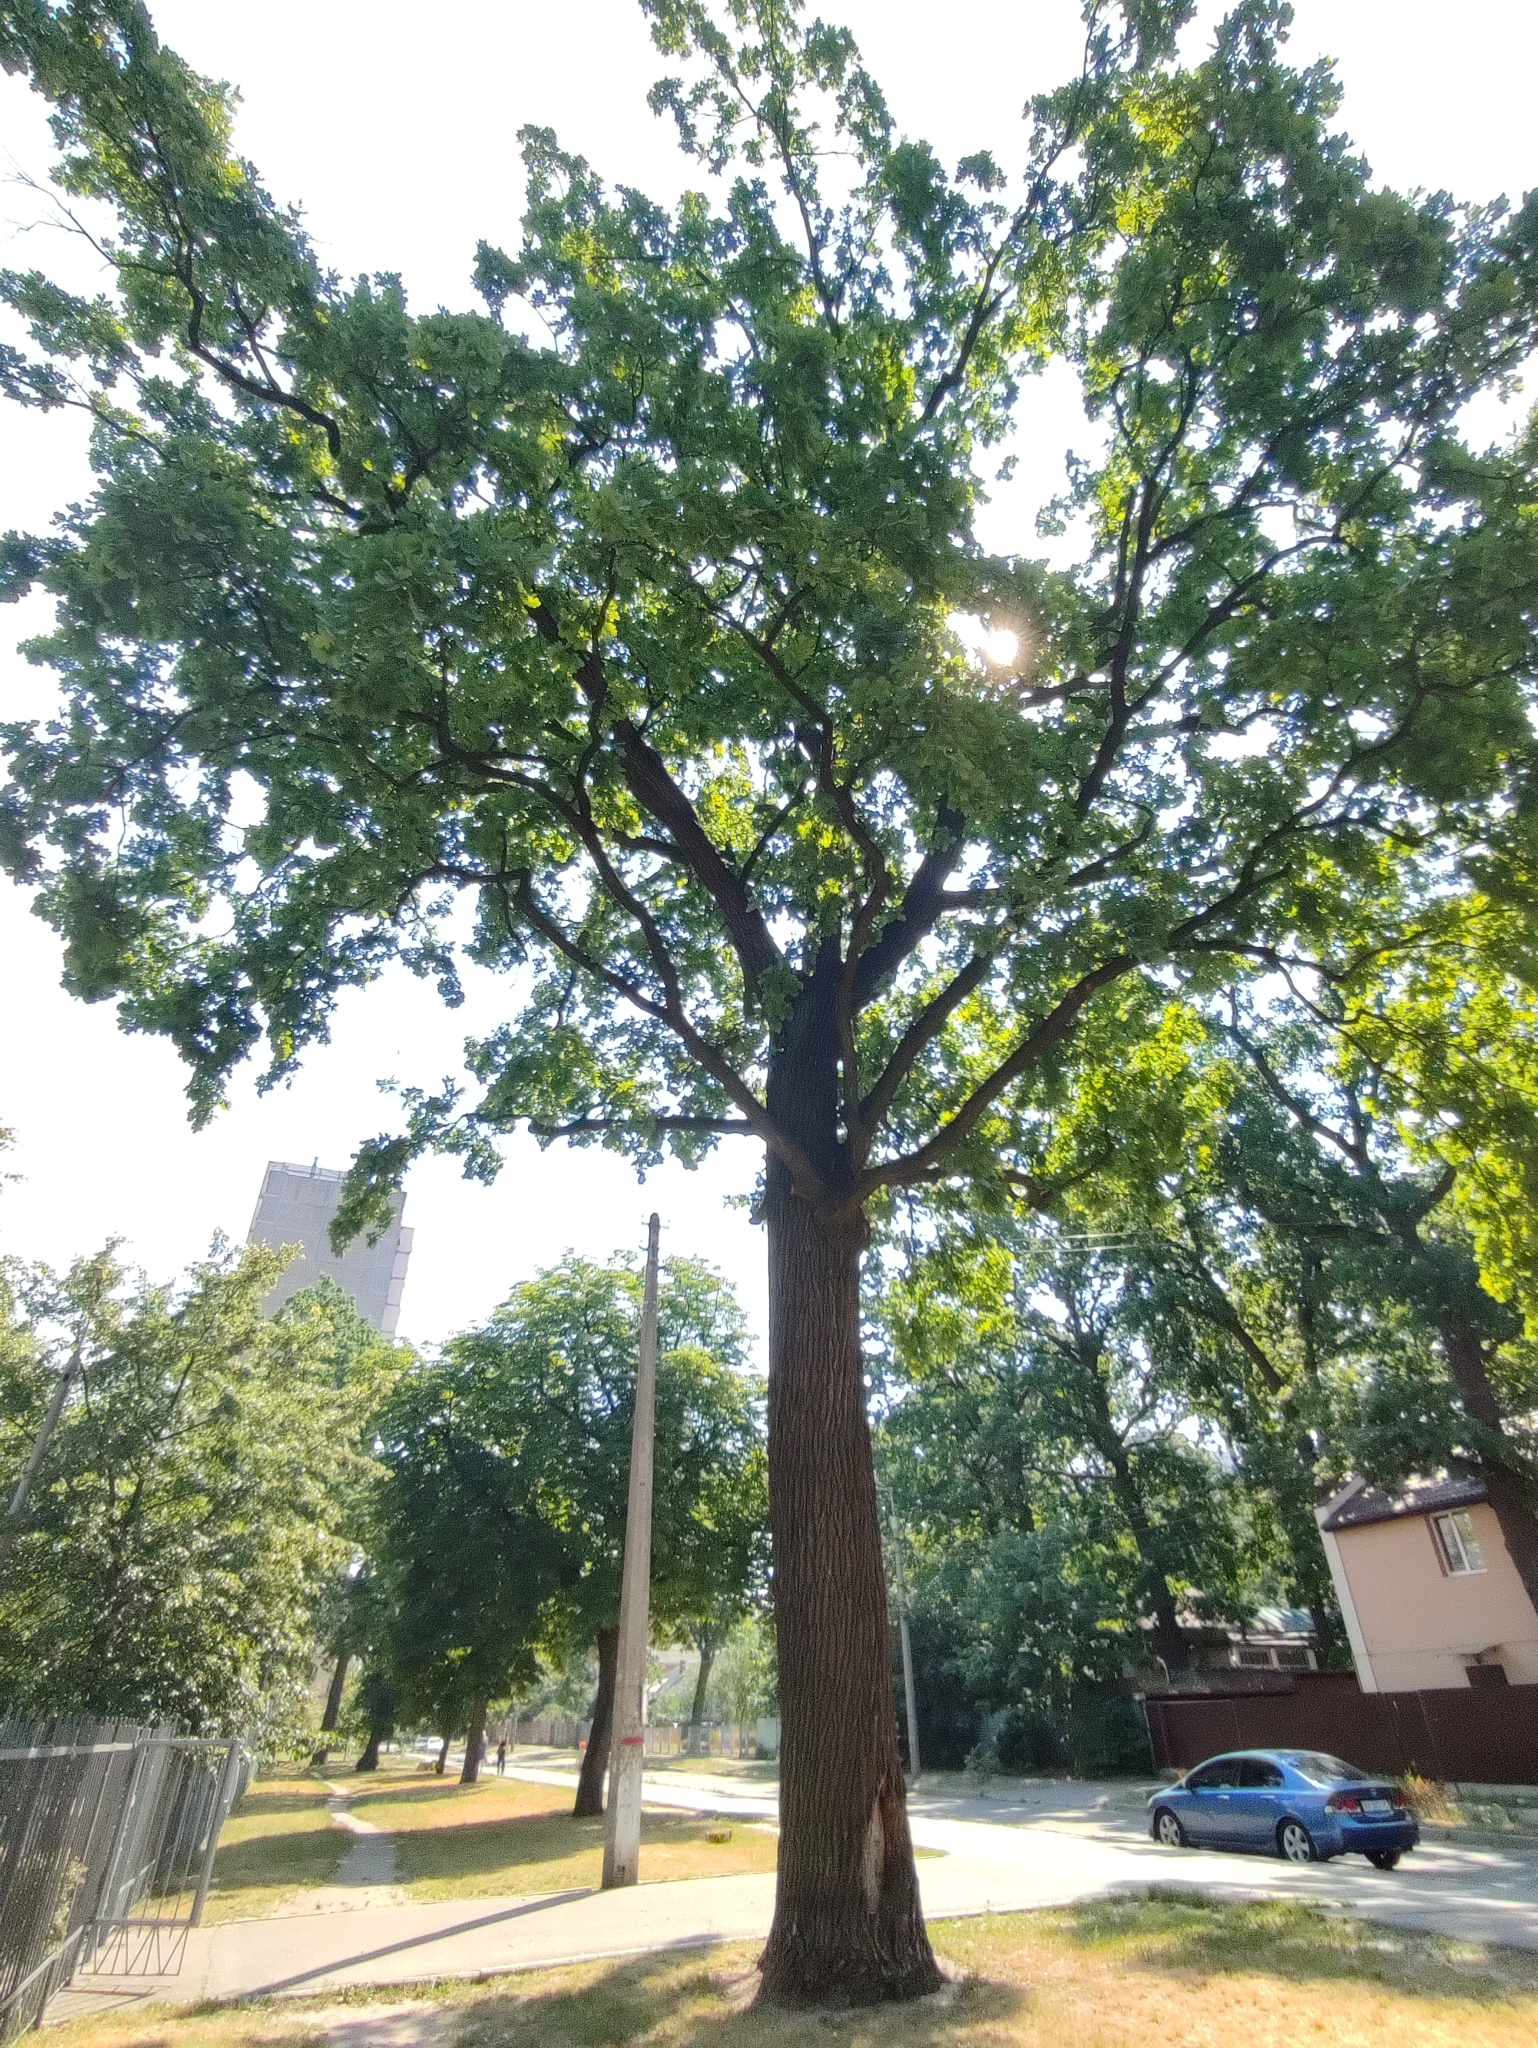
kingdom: Plantae
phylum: Tracheophyta
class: Magnoliopsida
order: Fagales
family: Fagaceae
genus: Quercus
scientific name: Quercus robur
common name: Pedunculate oak
